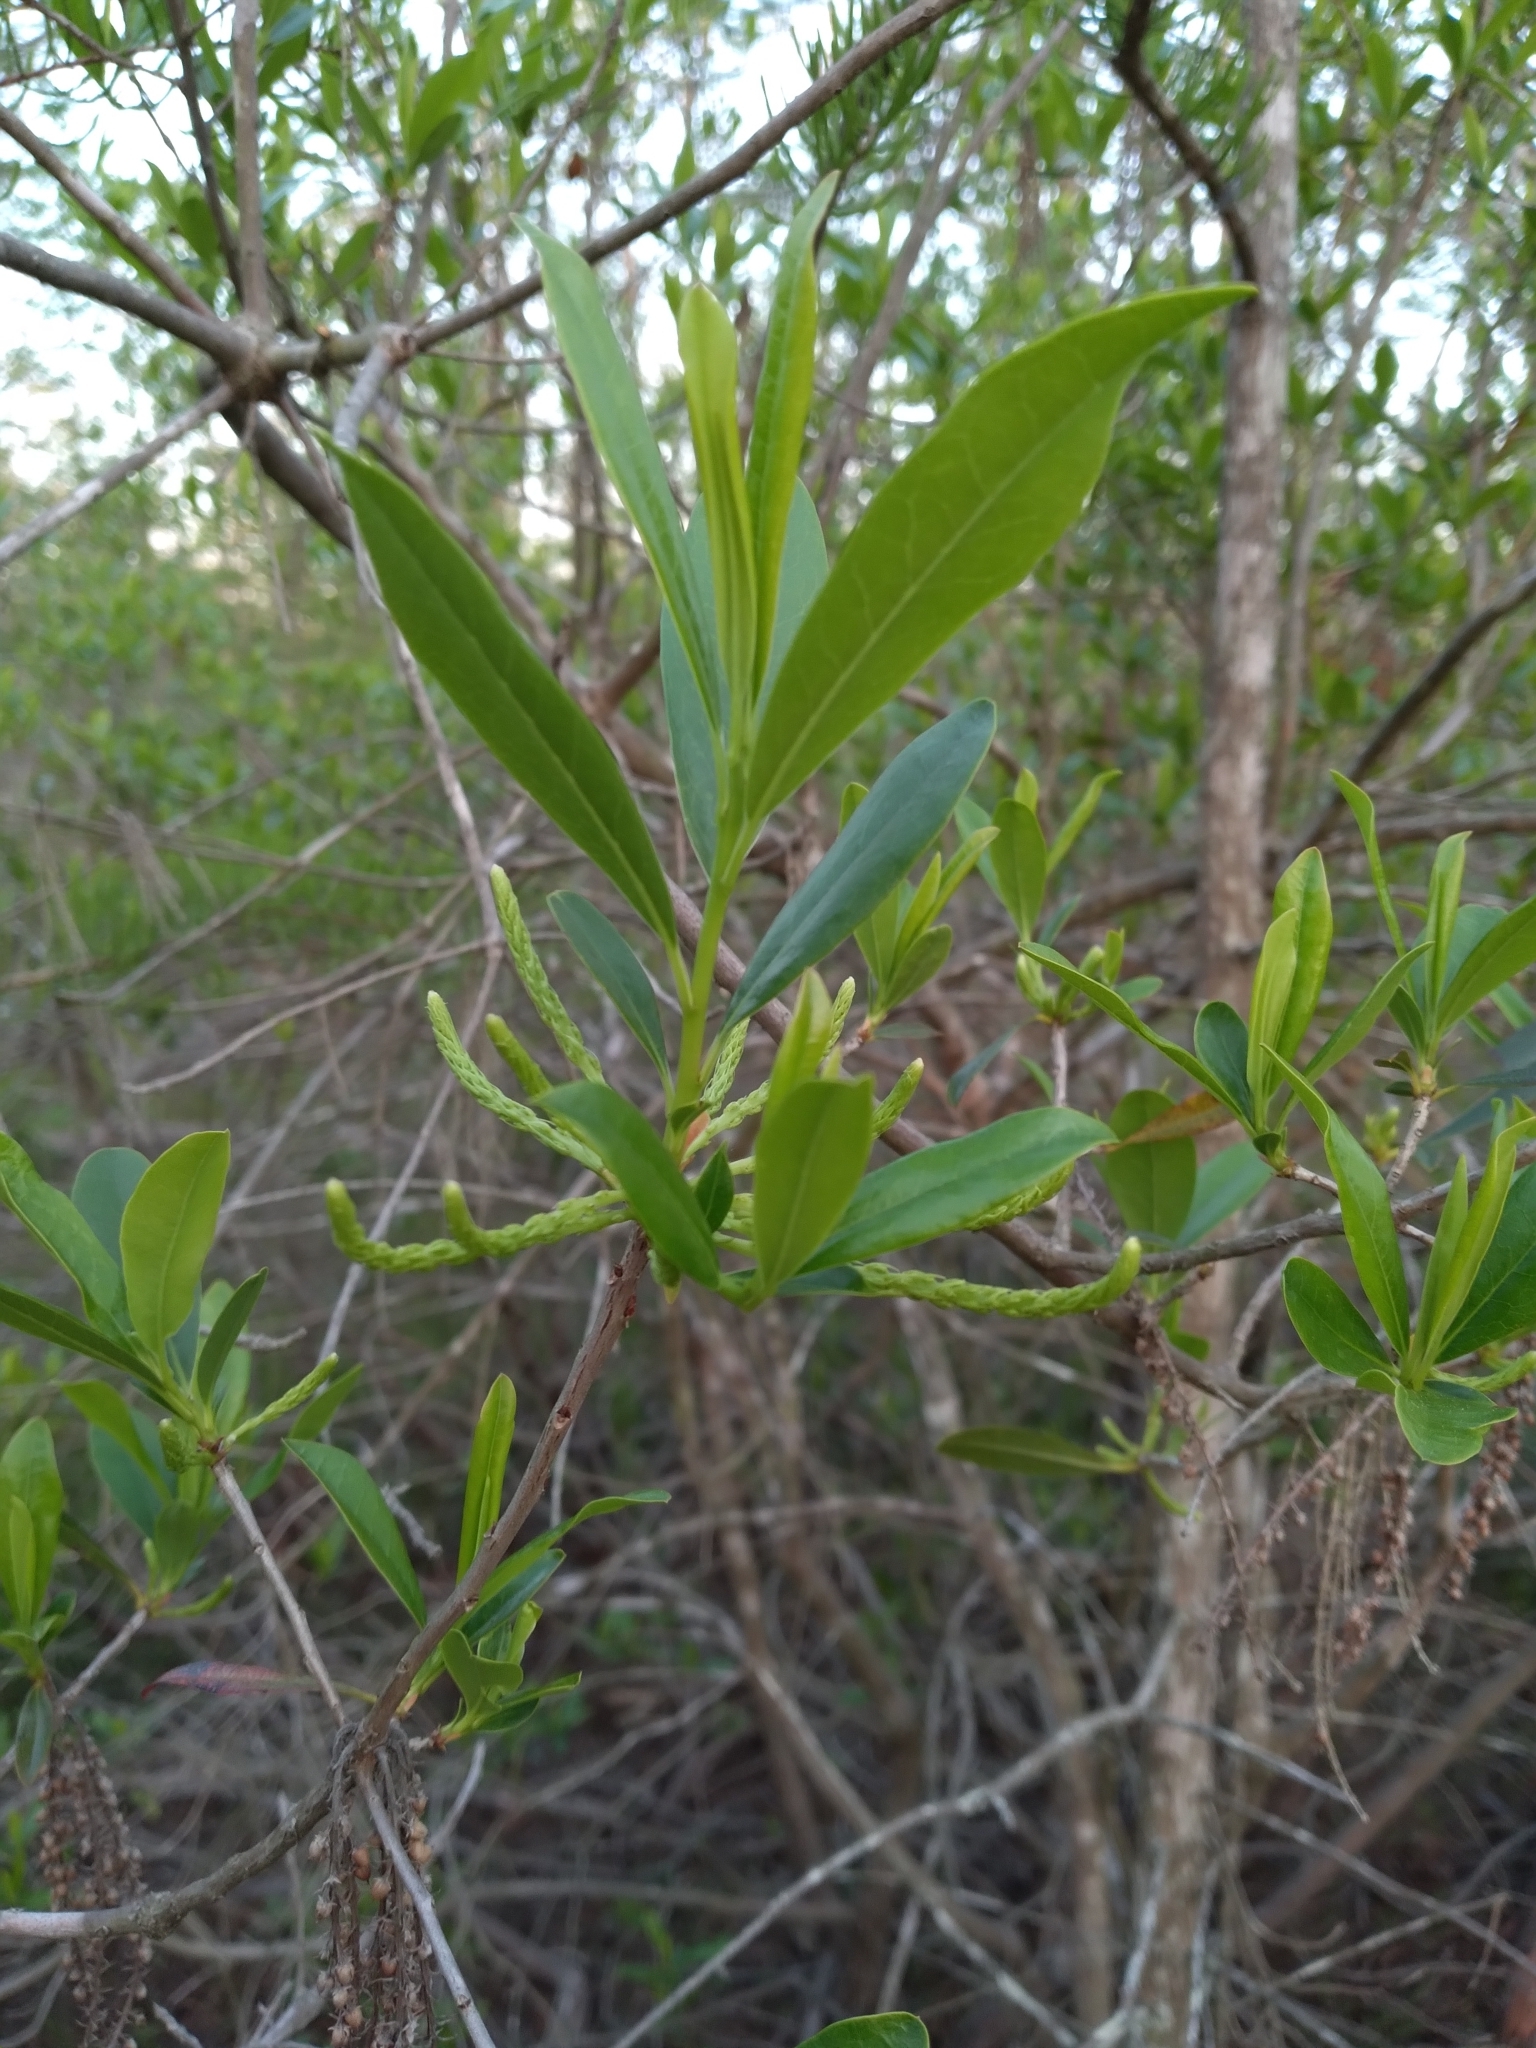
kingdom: Plantae
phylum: Tracheophyta
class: Magnoliopsida
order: Ericales
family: Cyrillaceae
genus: Cyrilla
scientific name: Cyrilla racemiflora
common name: Black titi
